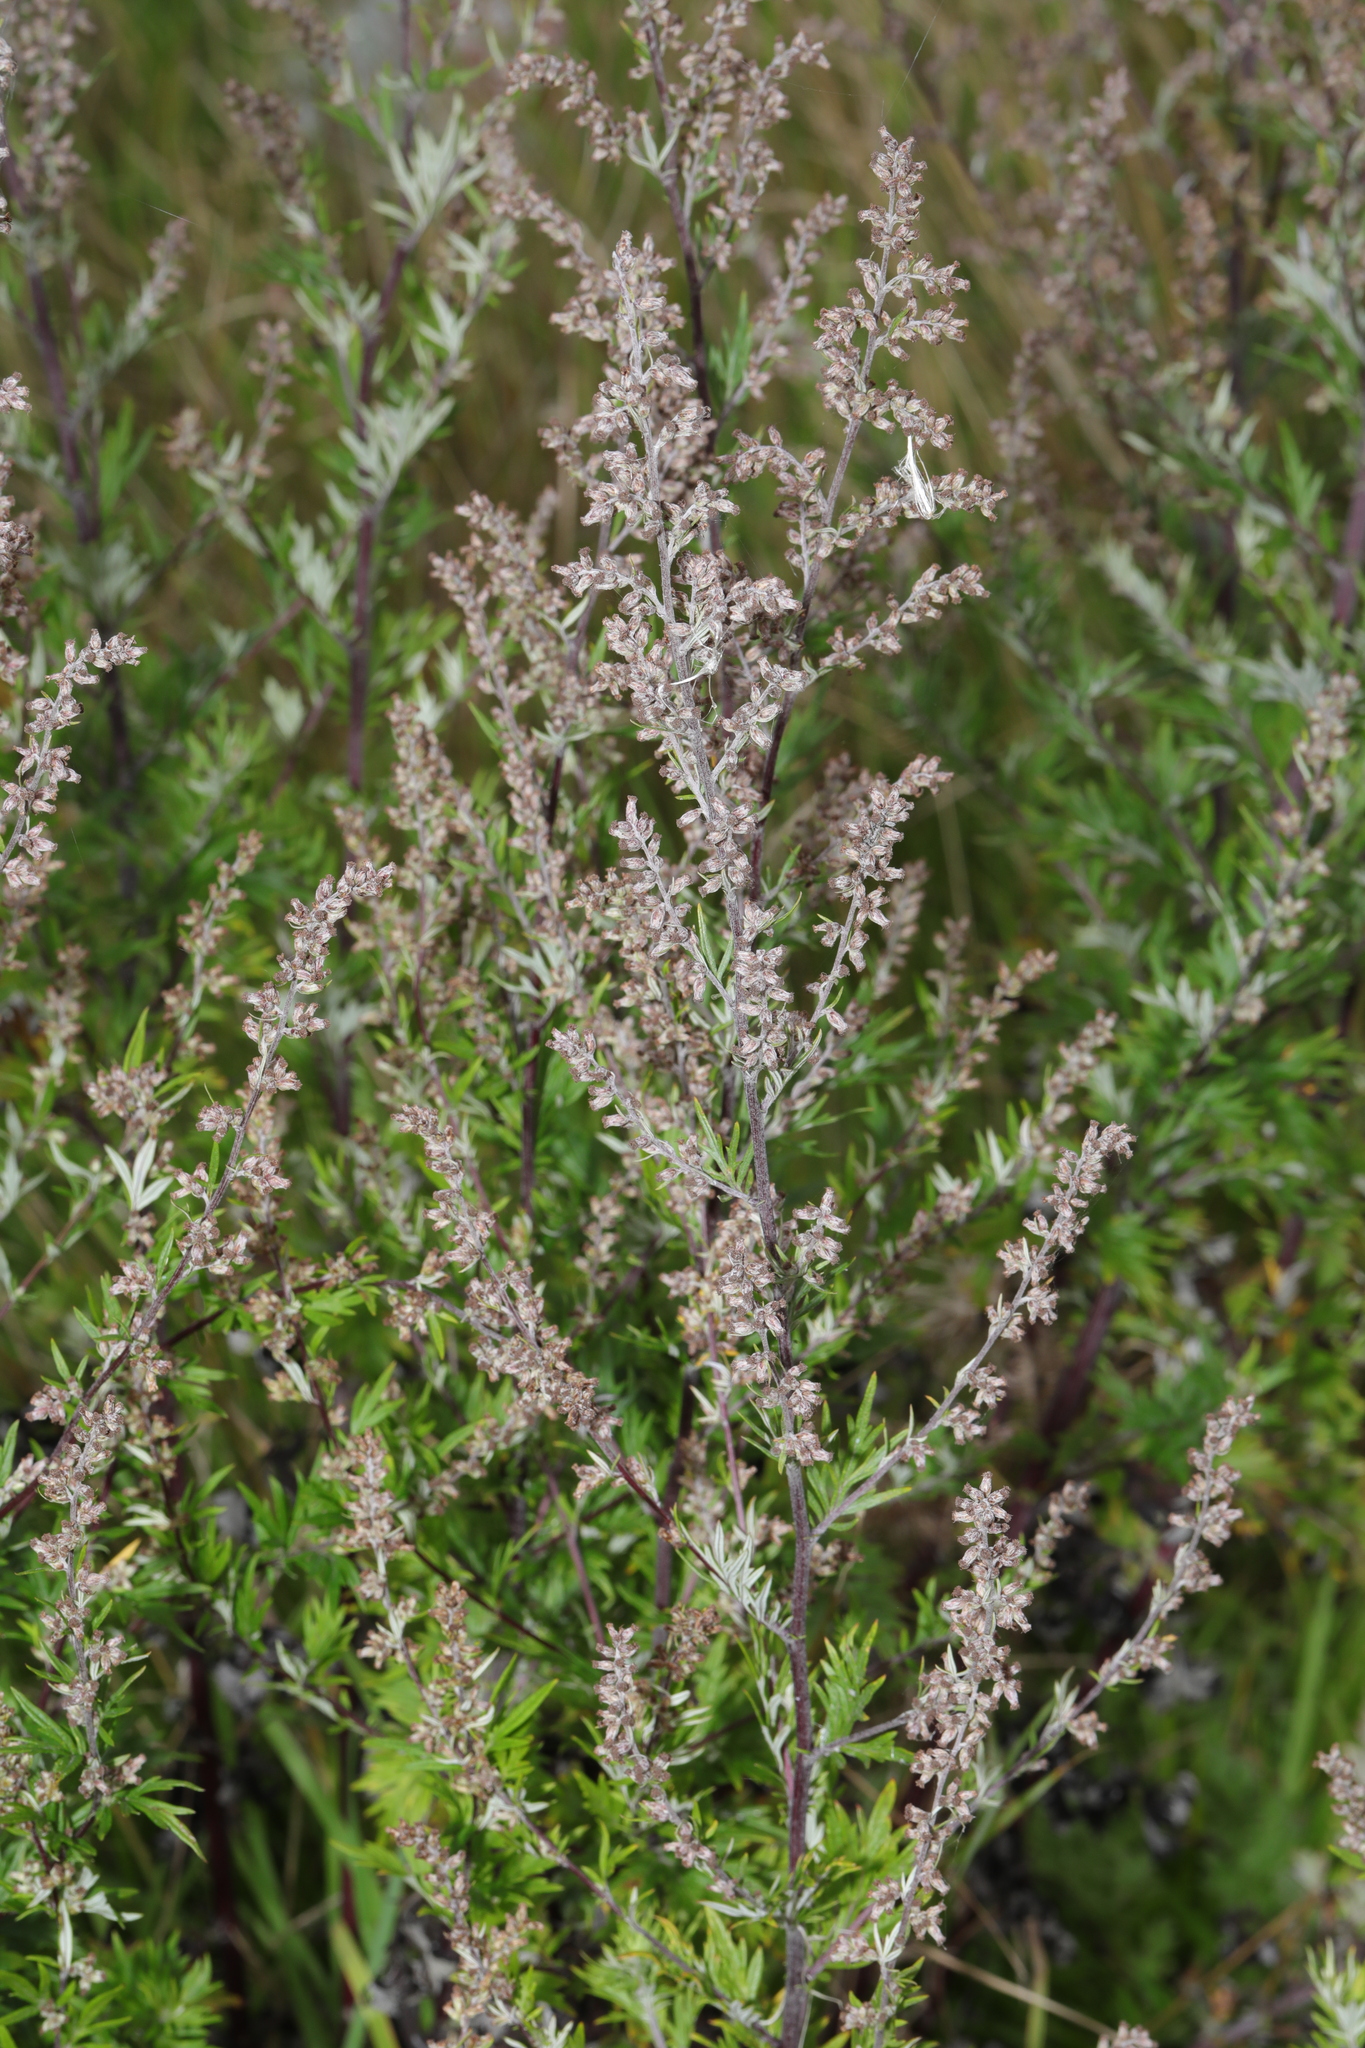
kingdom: Plantae
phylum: Tracheophyta
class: Magnoliopsida
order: Asterales
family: Asteraceae
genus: Artemisia
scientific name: Artemisia vulgaris
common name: Mugwort
